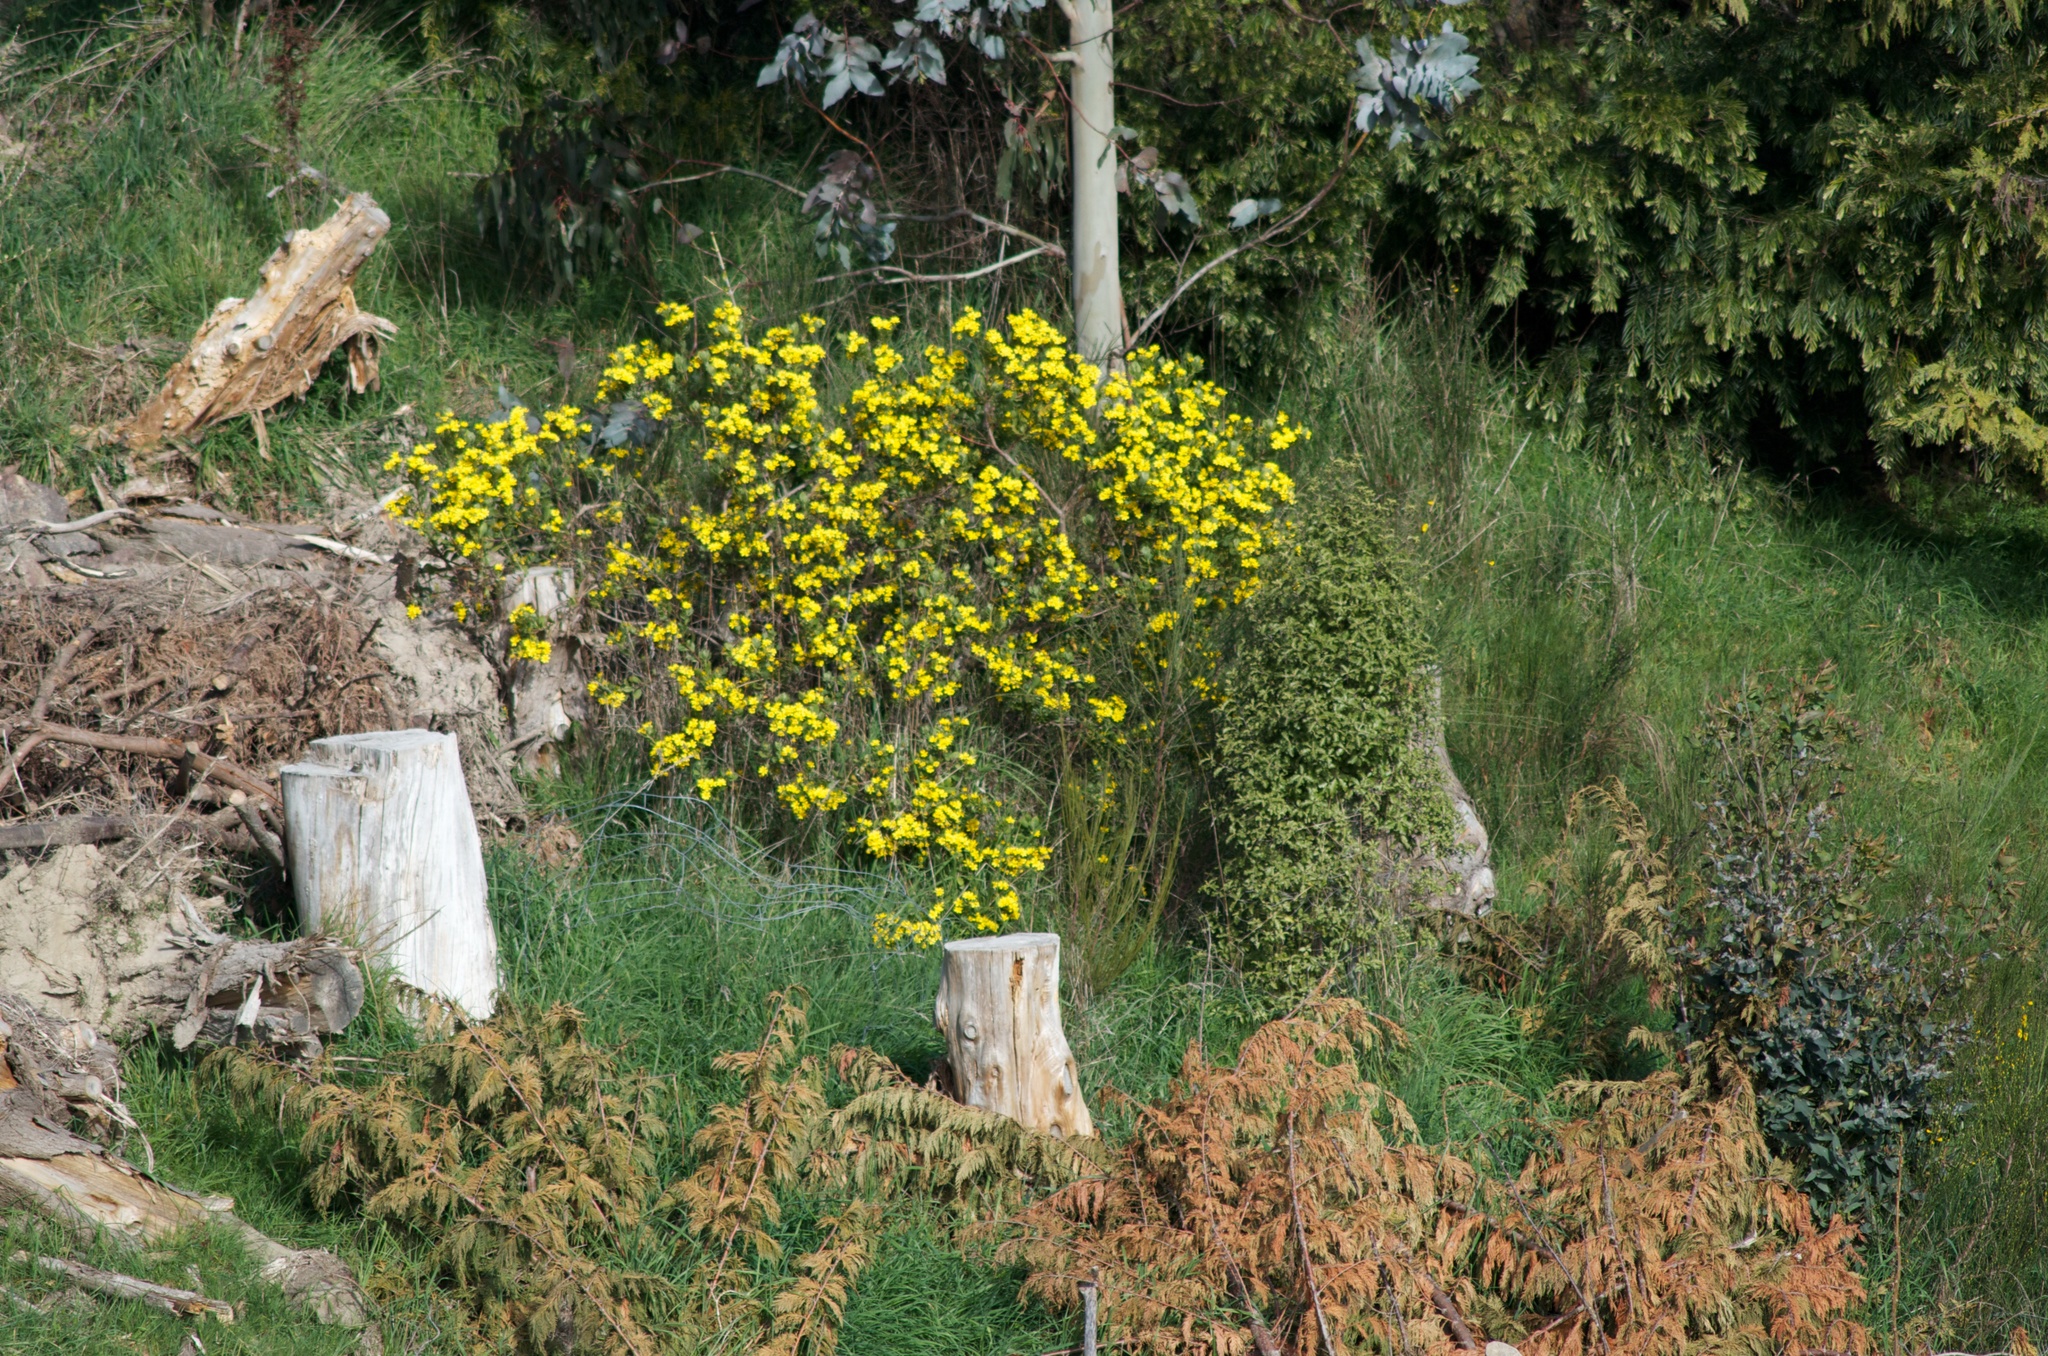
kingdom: Plantae
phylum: Tracheophyta
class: Magnoliopsida
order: Asterales
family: Asteraceae
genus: Osteospermum
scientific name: Osteospermum moniliferum
